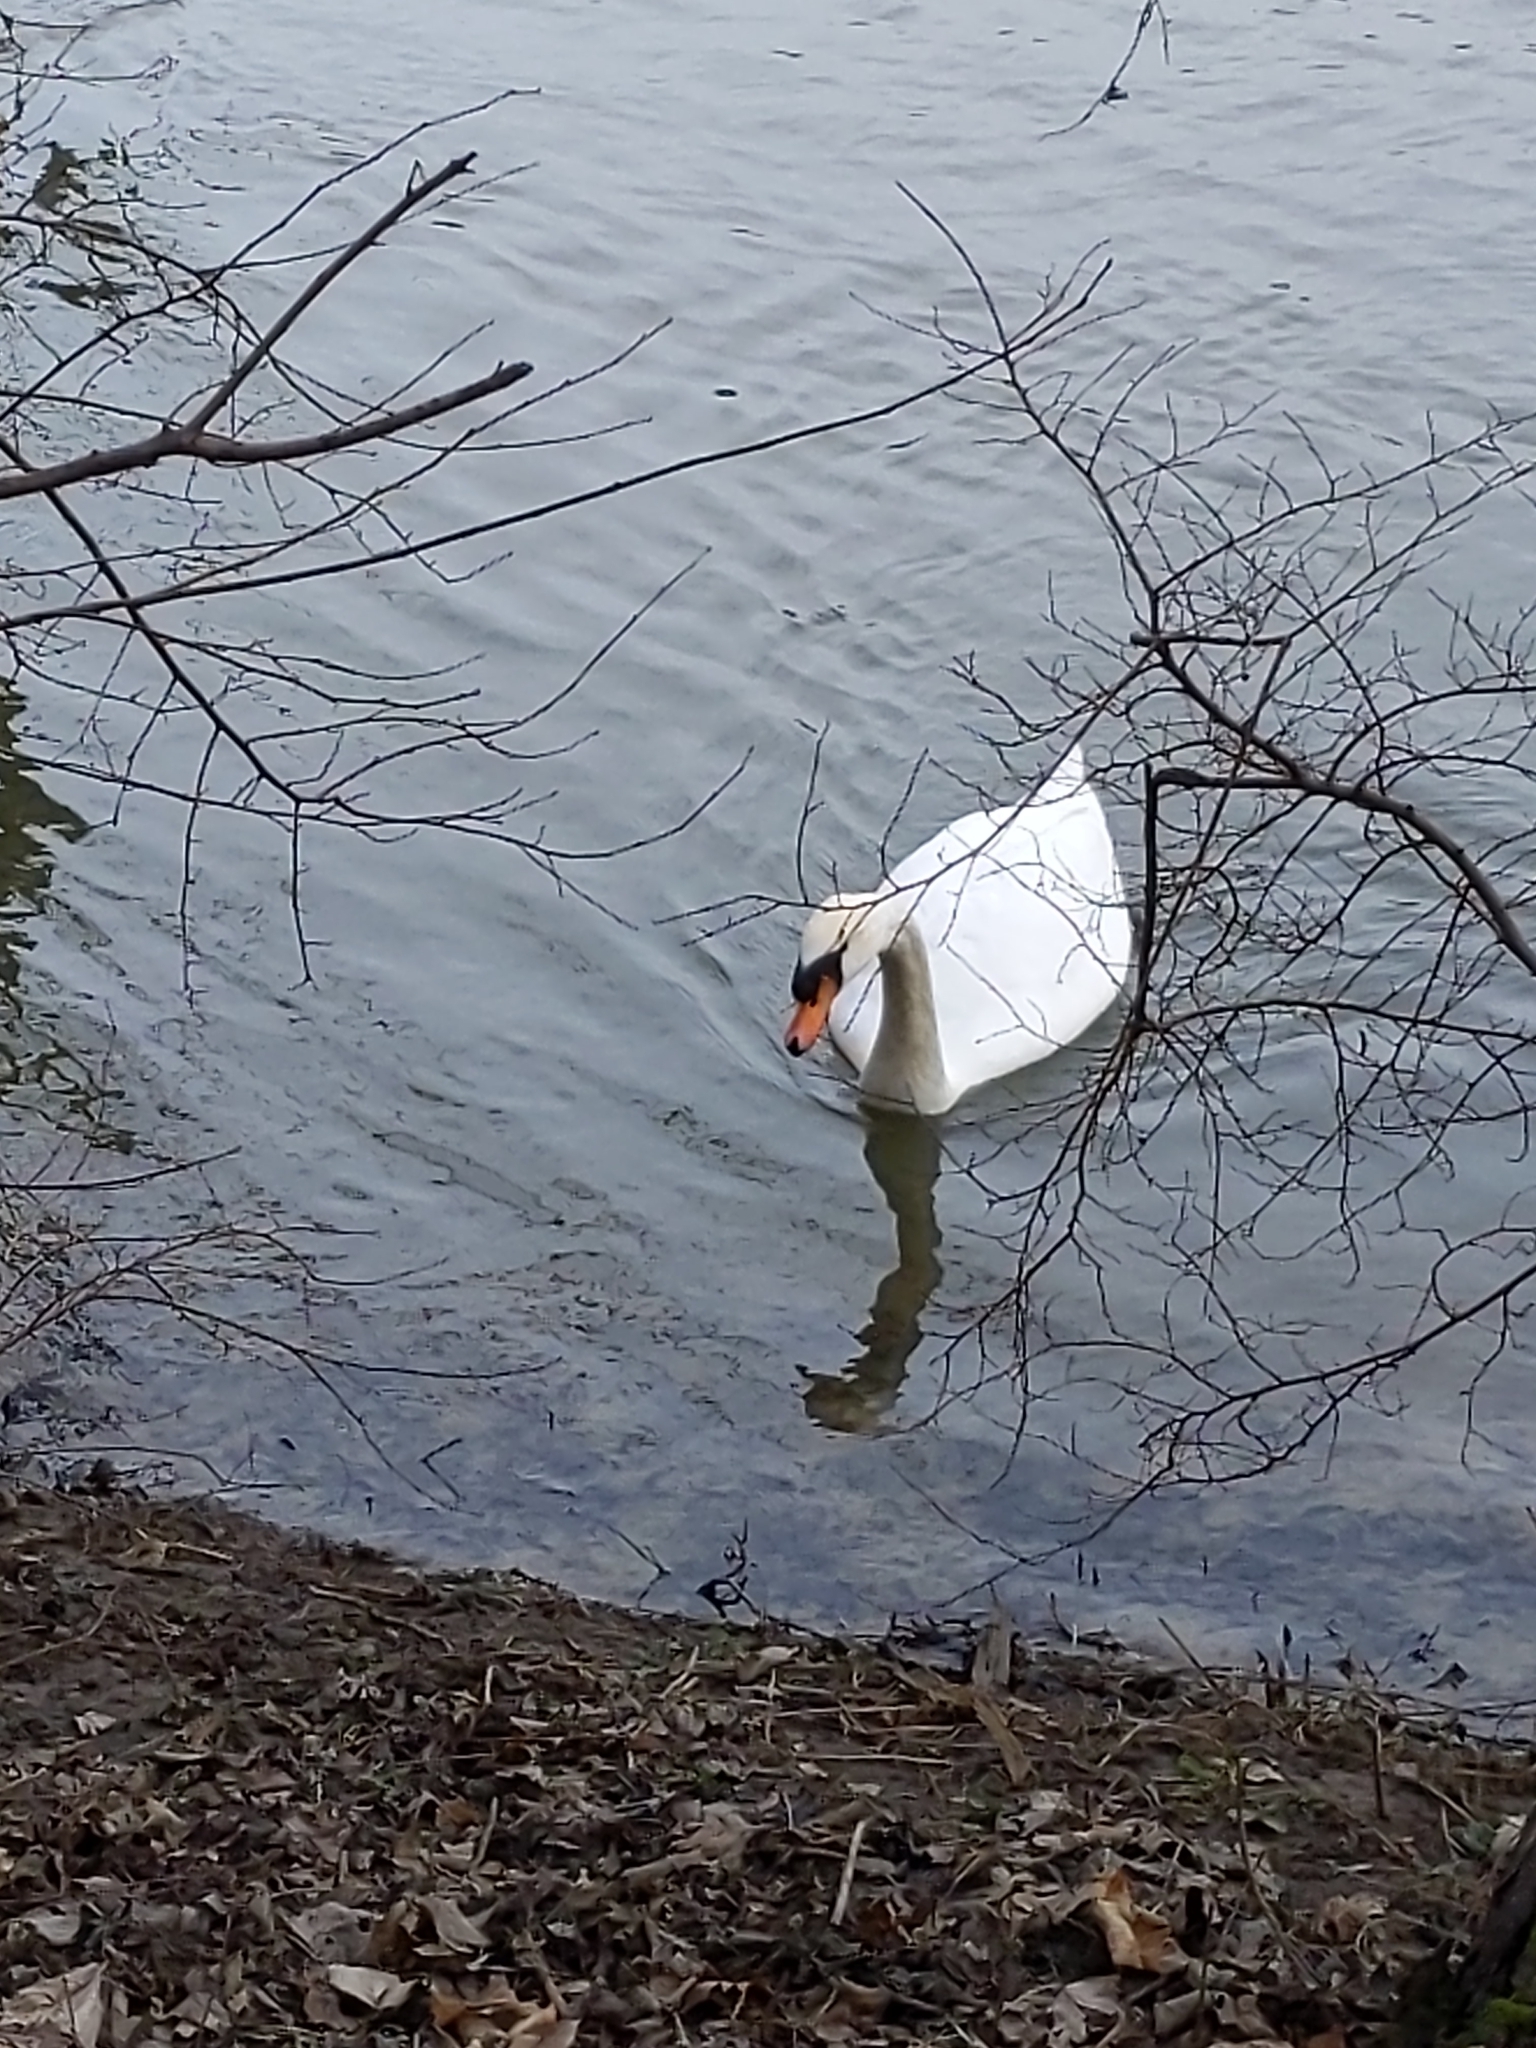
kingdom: Animalia
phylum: Chordata
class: Aves
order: Anseriformes
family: Anatidae
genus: Cygnus
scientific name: Cygnus olor
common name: Mute swan
